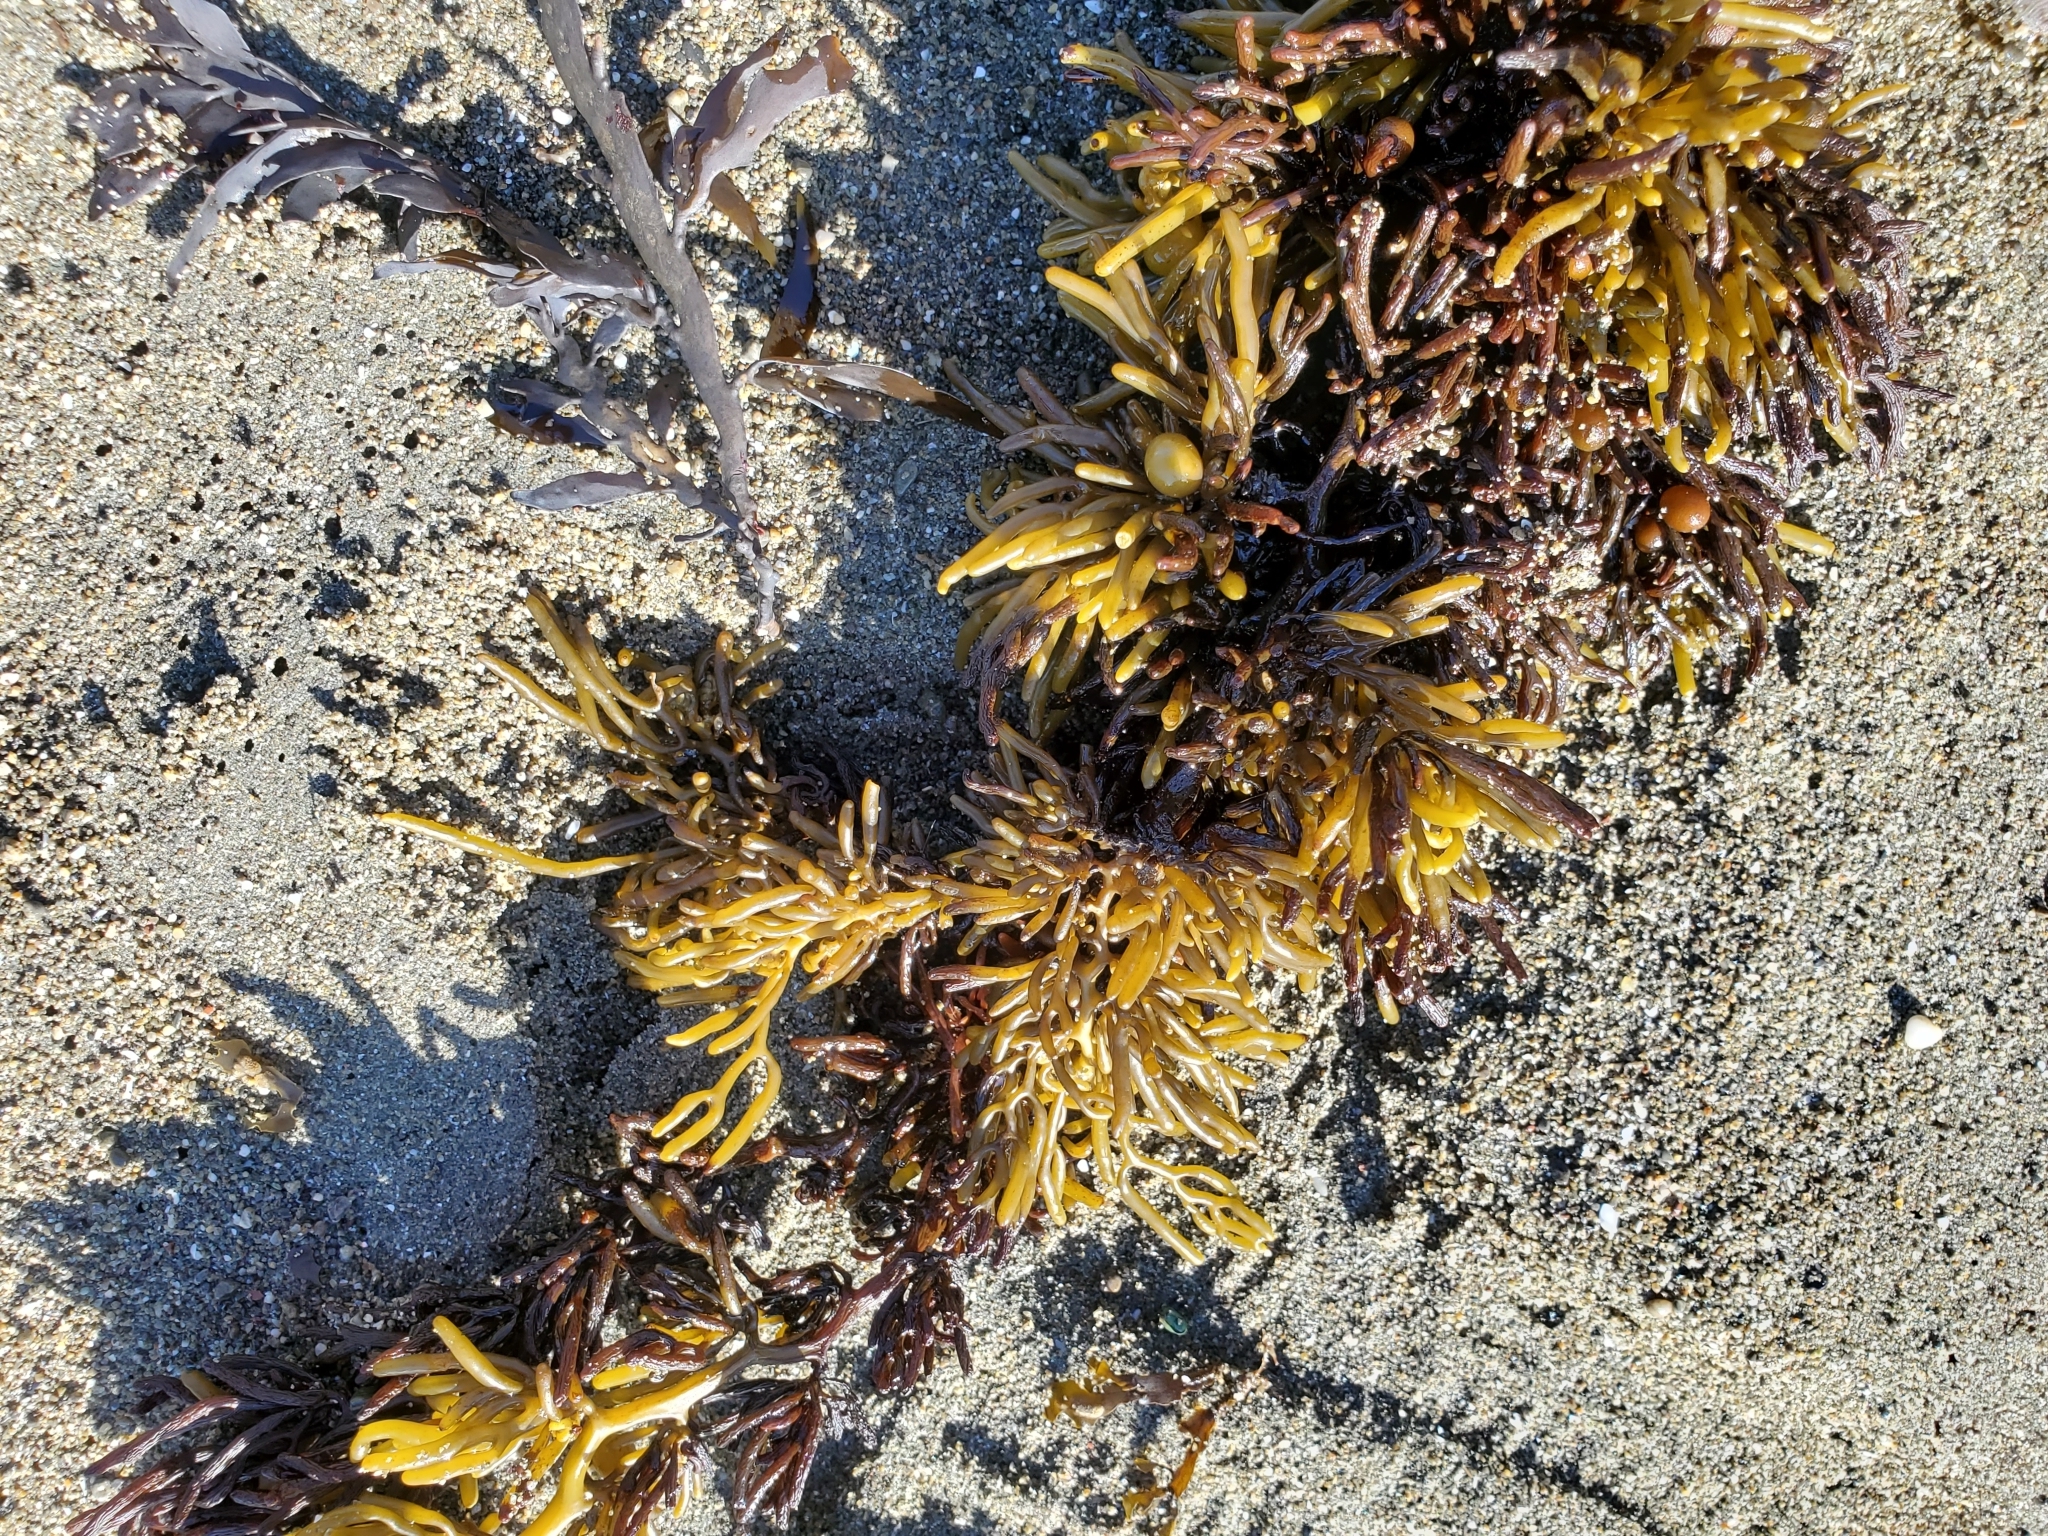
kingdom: Chromista
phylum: Ochrophyta
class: Phaeophyceae
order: Fucales
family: Sargassaceae
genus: Cystophora
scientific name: Cystophora torulosa
